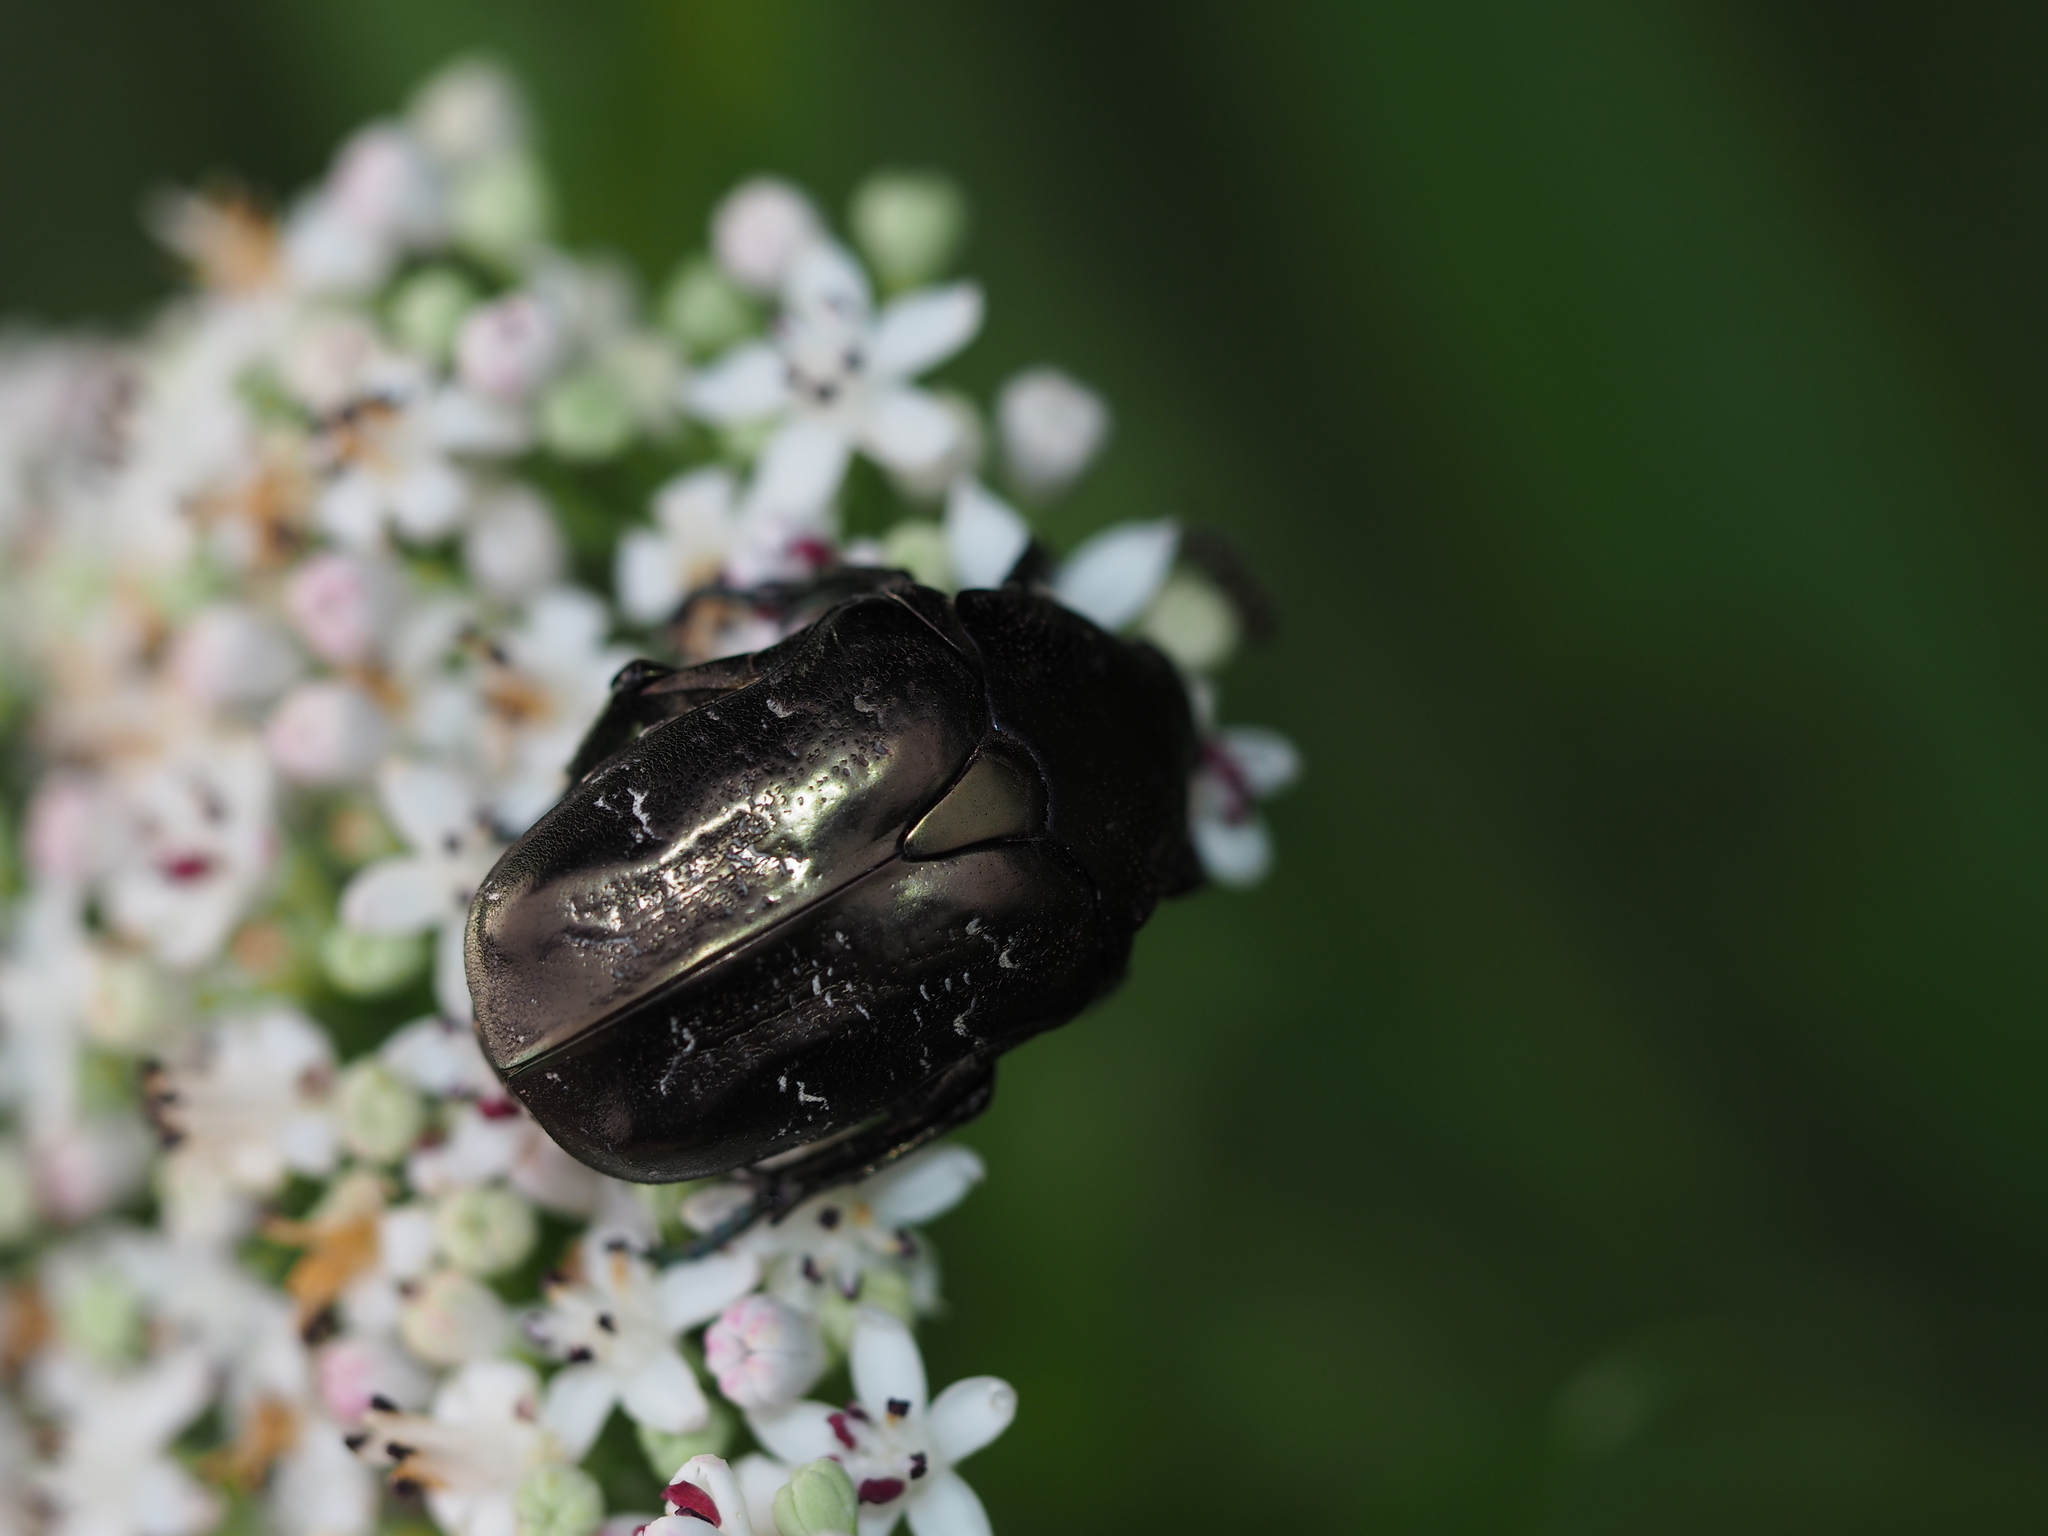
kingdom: Animalia
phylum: Arthropoda
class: Insecta
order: Coleoptera
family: Scarabaeidae
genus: Protaetia
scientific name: Protaetia marmorata
